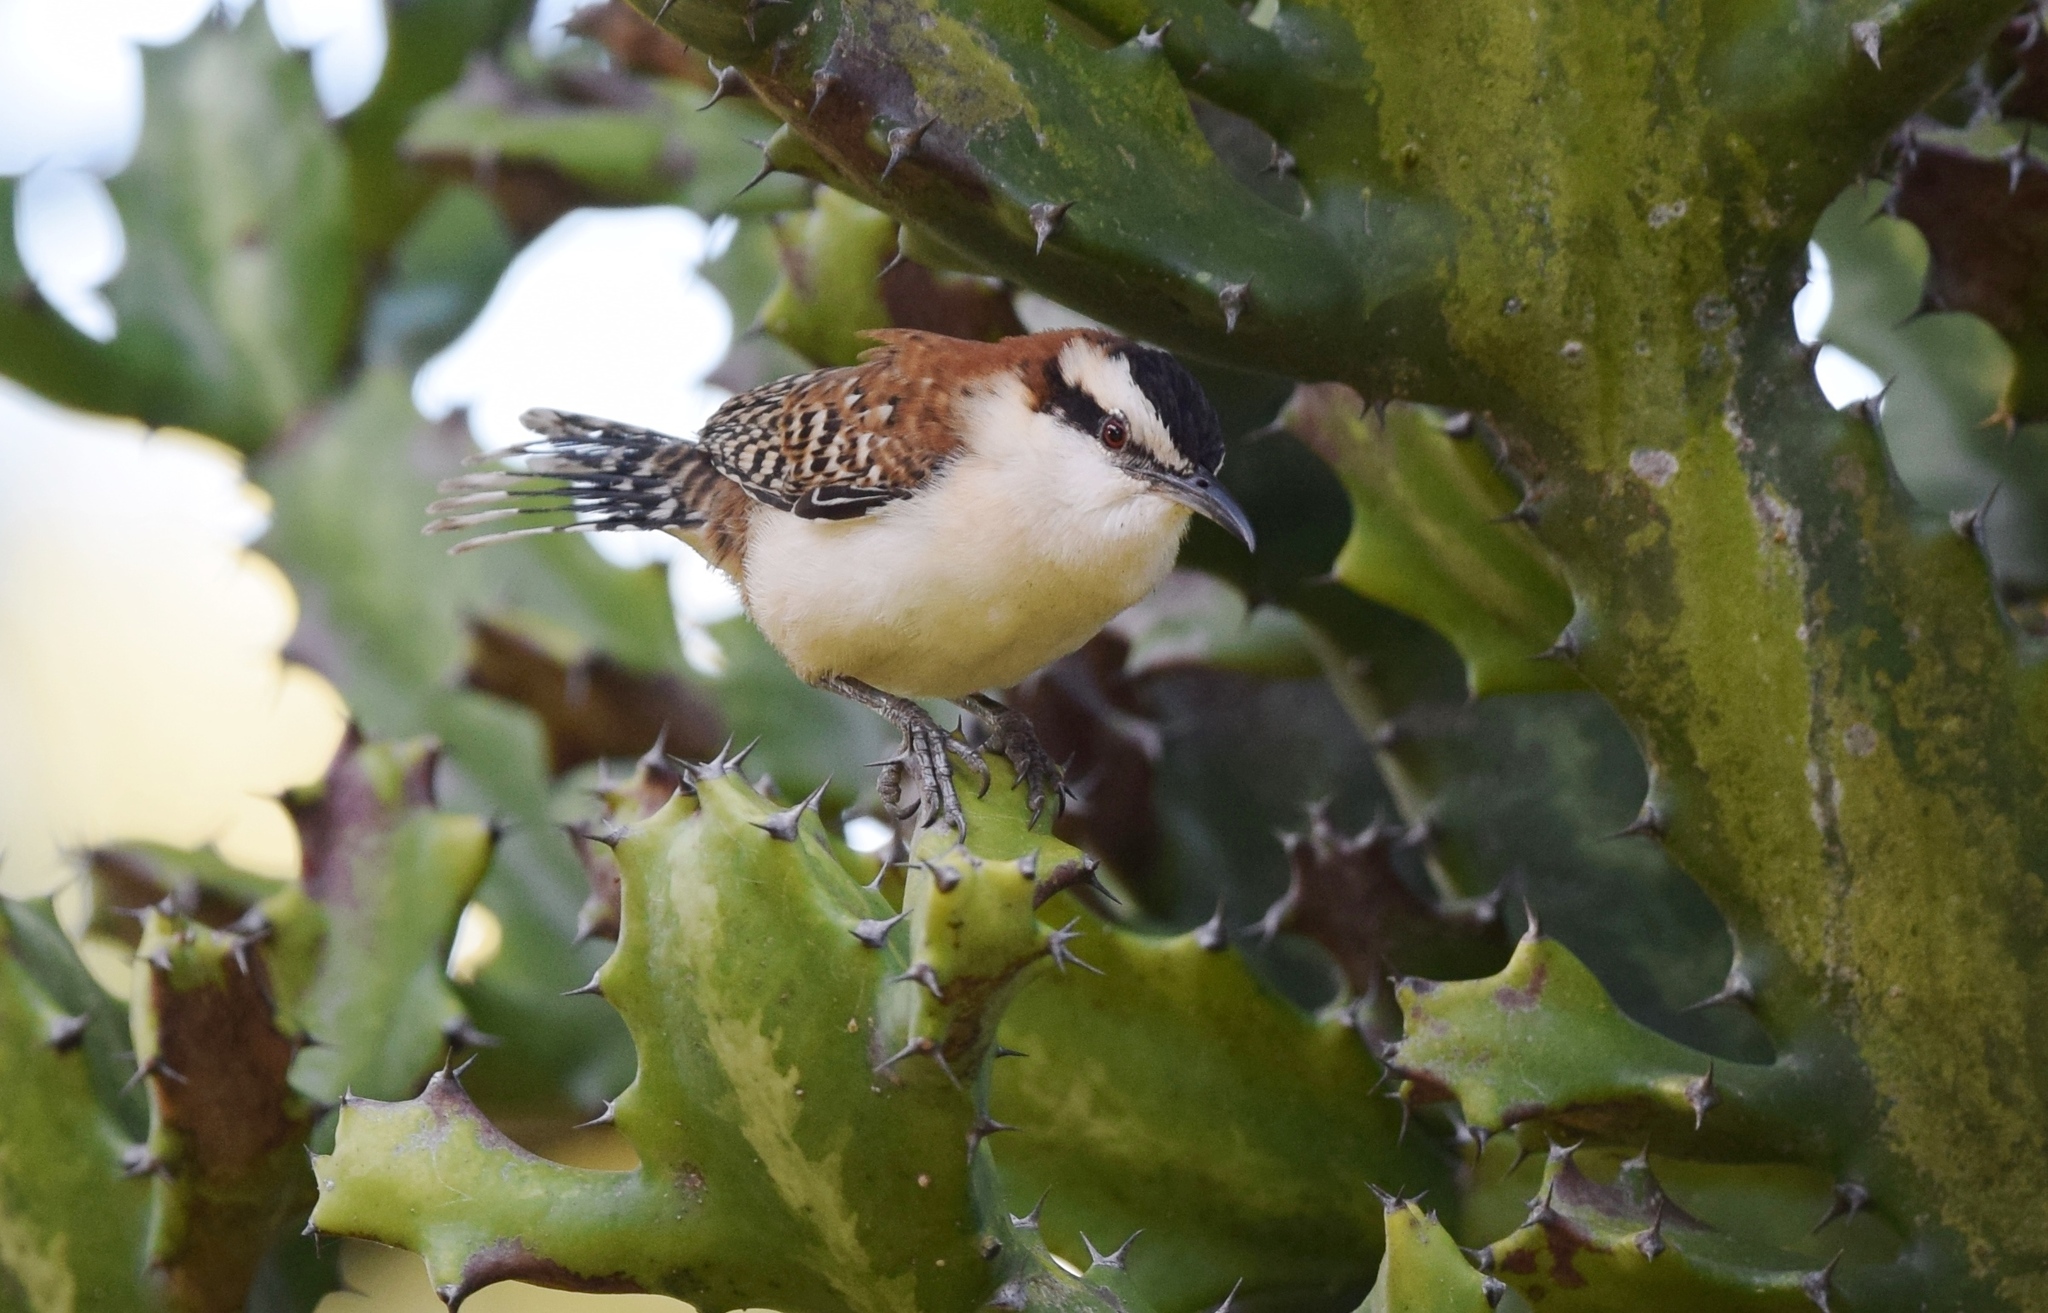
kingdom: Animalia
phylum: Chordata
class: Aves
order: Passeriformes
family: Troglodytidae
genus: Campylorhynchus
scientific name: Campylorhynchus rufinucha
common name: Rufous-naped wren
